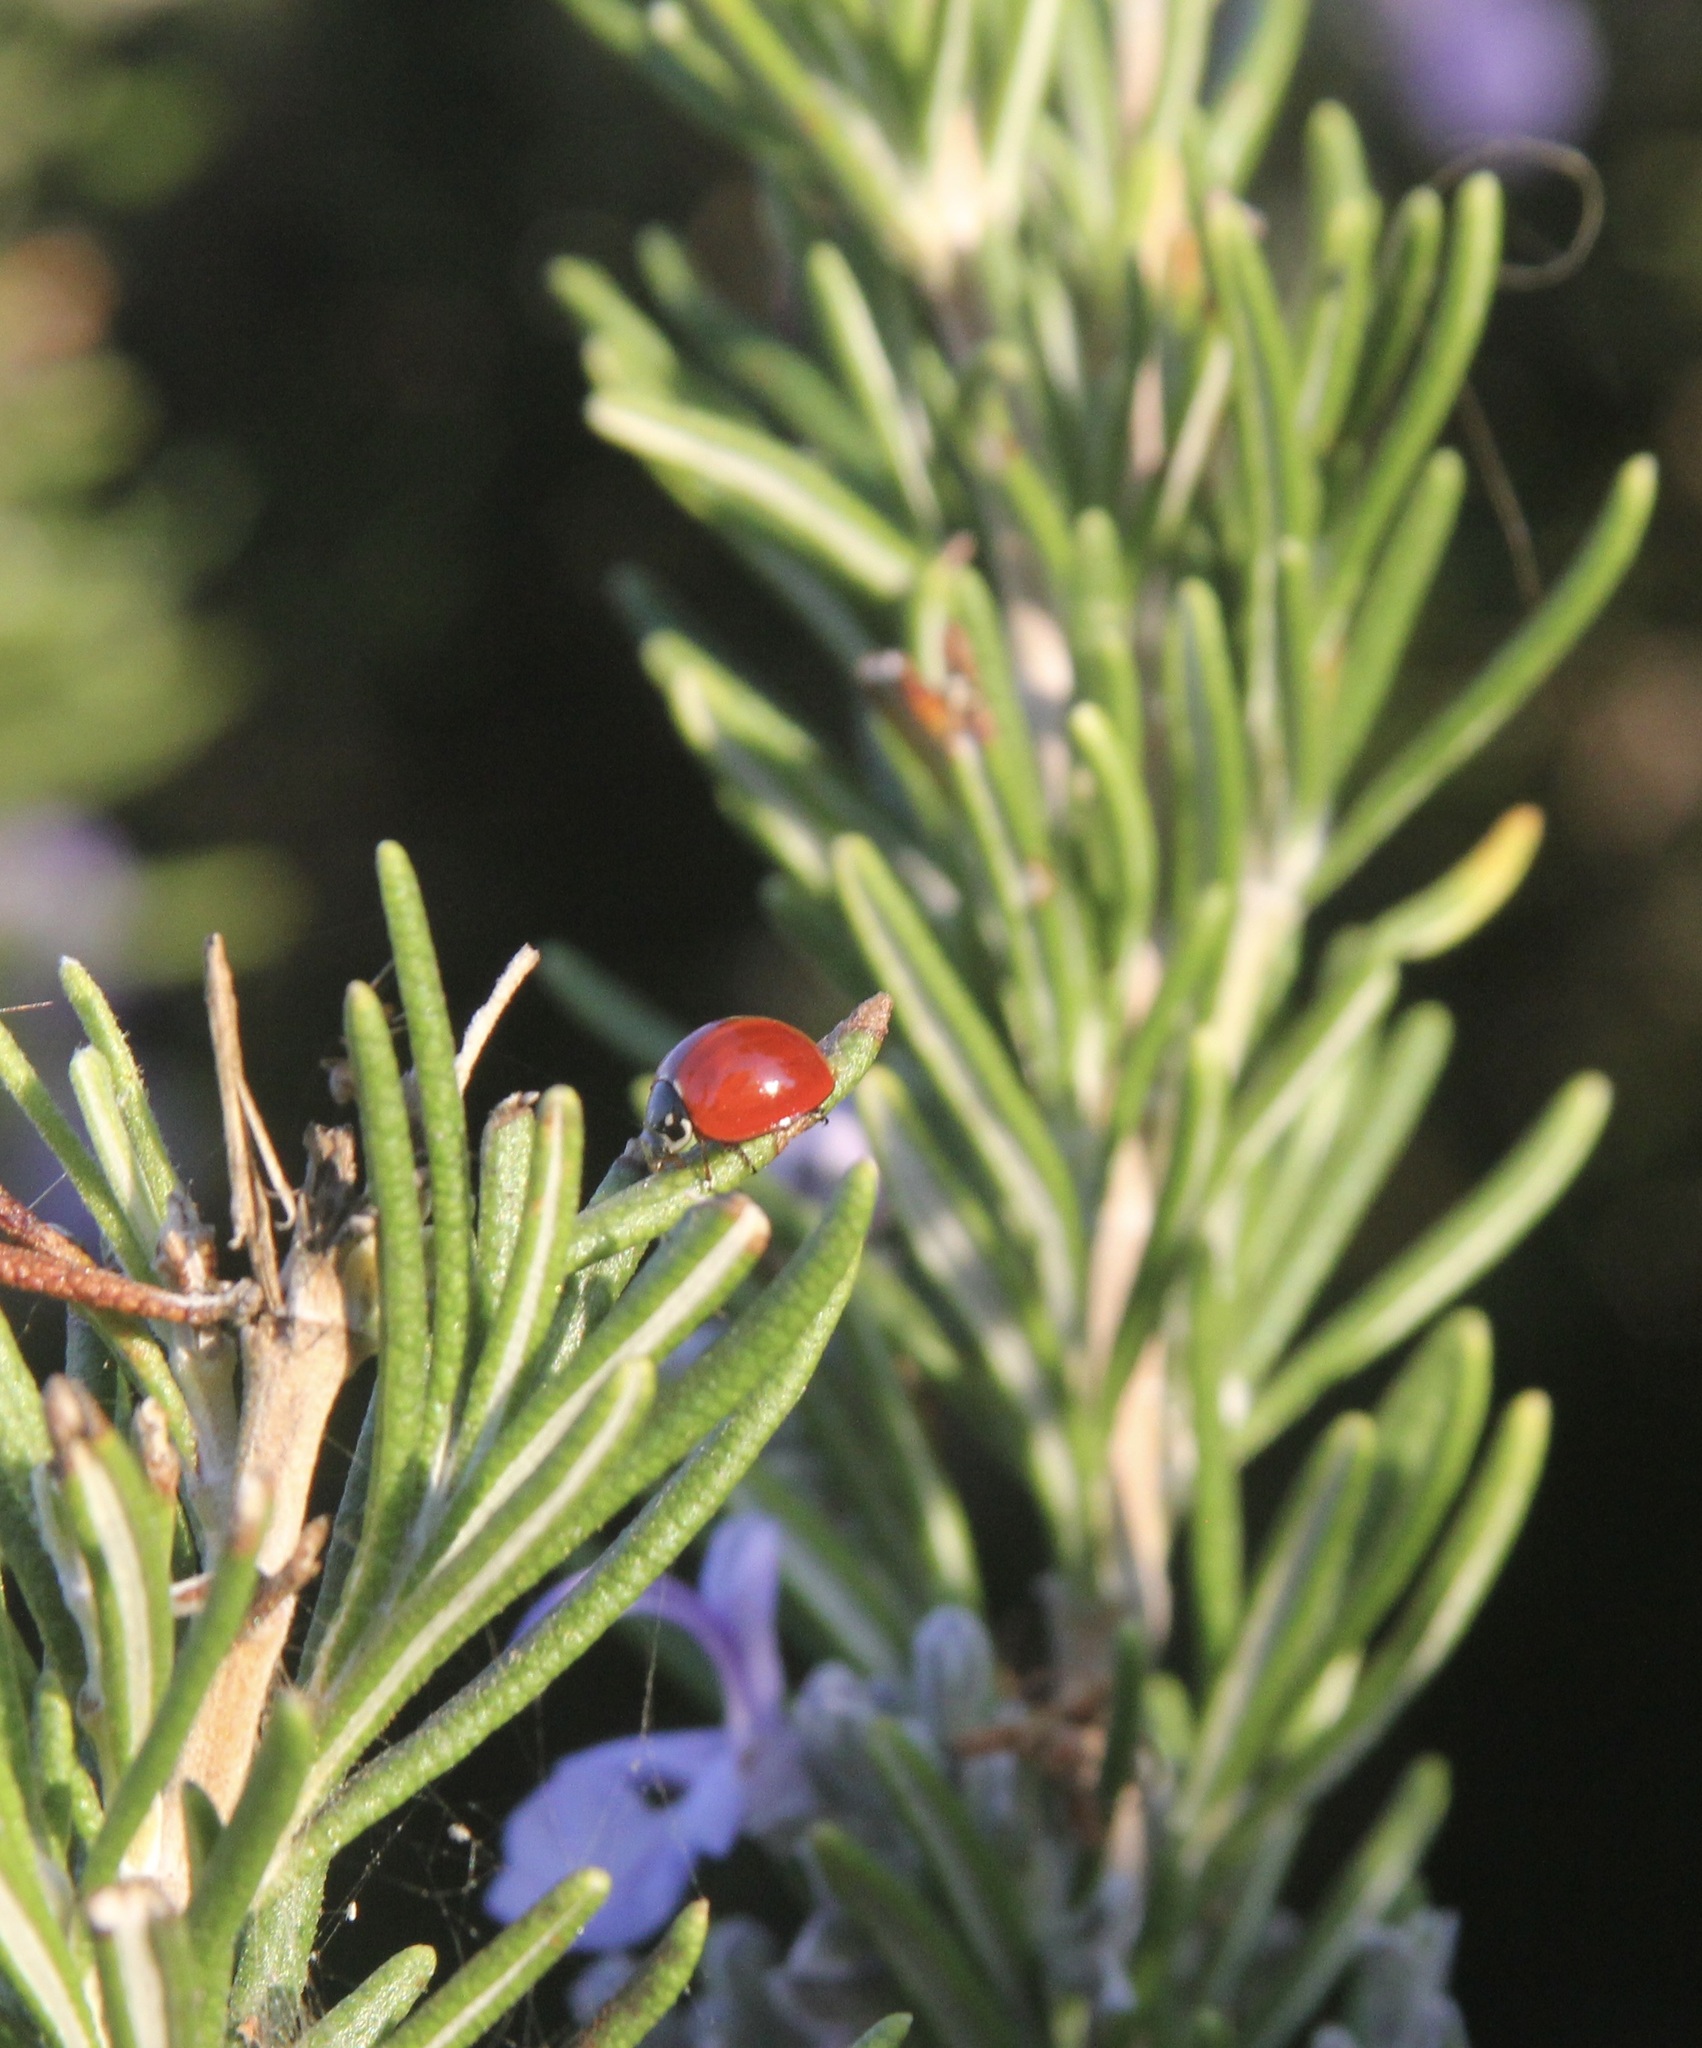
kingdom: Animalia
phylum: Arthropoda
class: Insecta
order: Coleoptera
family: Coccinellidae
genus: Cycloneda
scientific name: Cycloneda sanguinea
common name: Ladybird beetle
